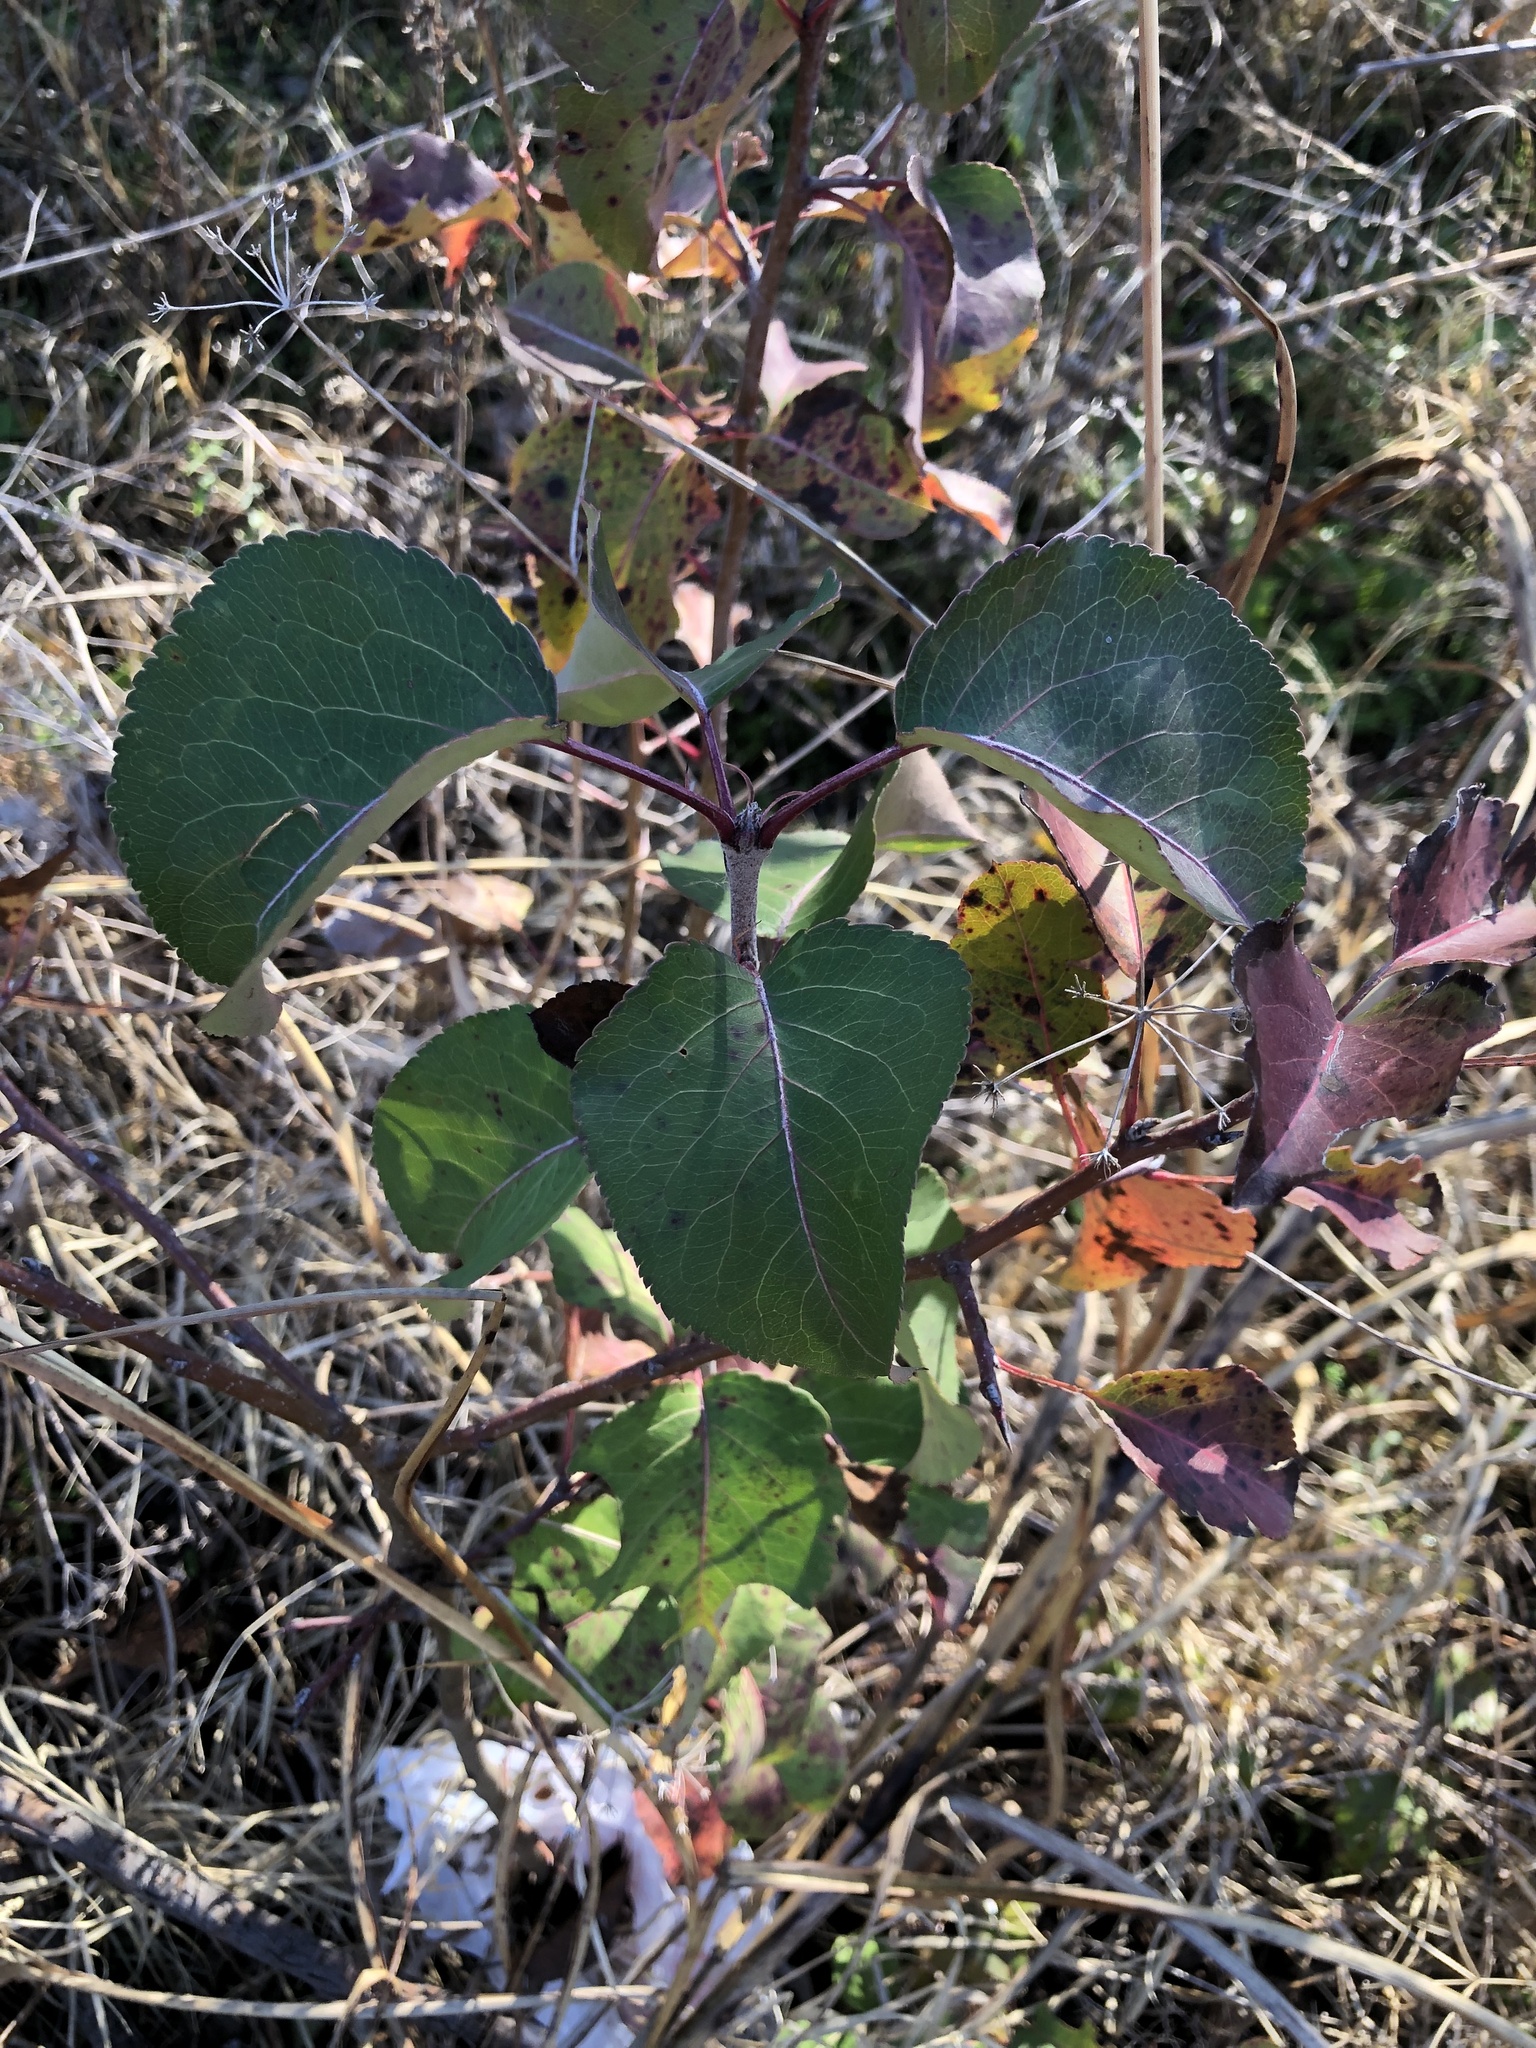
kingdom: Plantae
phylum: Tracheophyta
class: Magnoliopsida
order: Rosales
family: Rosaceae
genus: Pyrus
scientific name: Pyrus calleryana
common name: Callery pear
